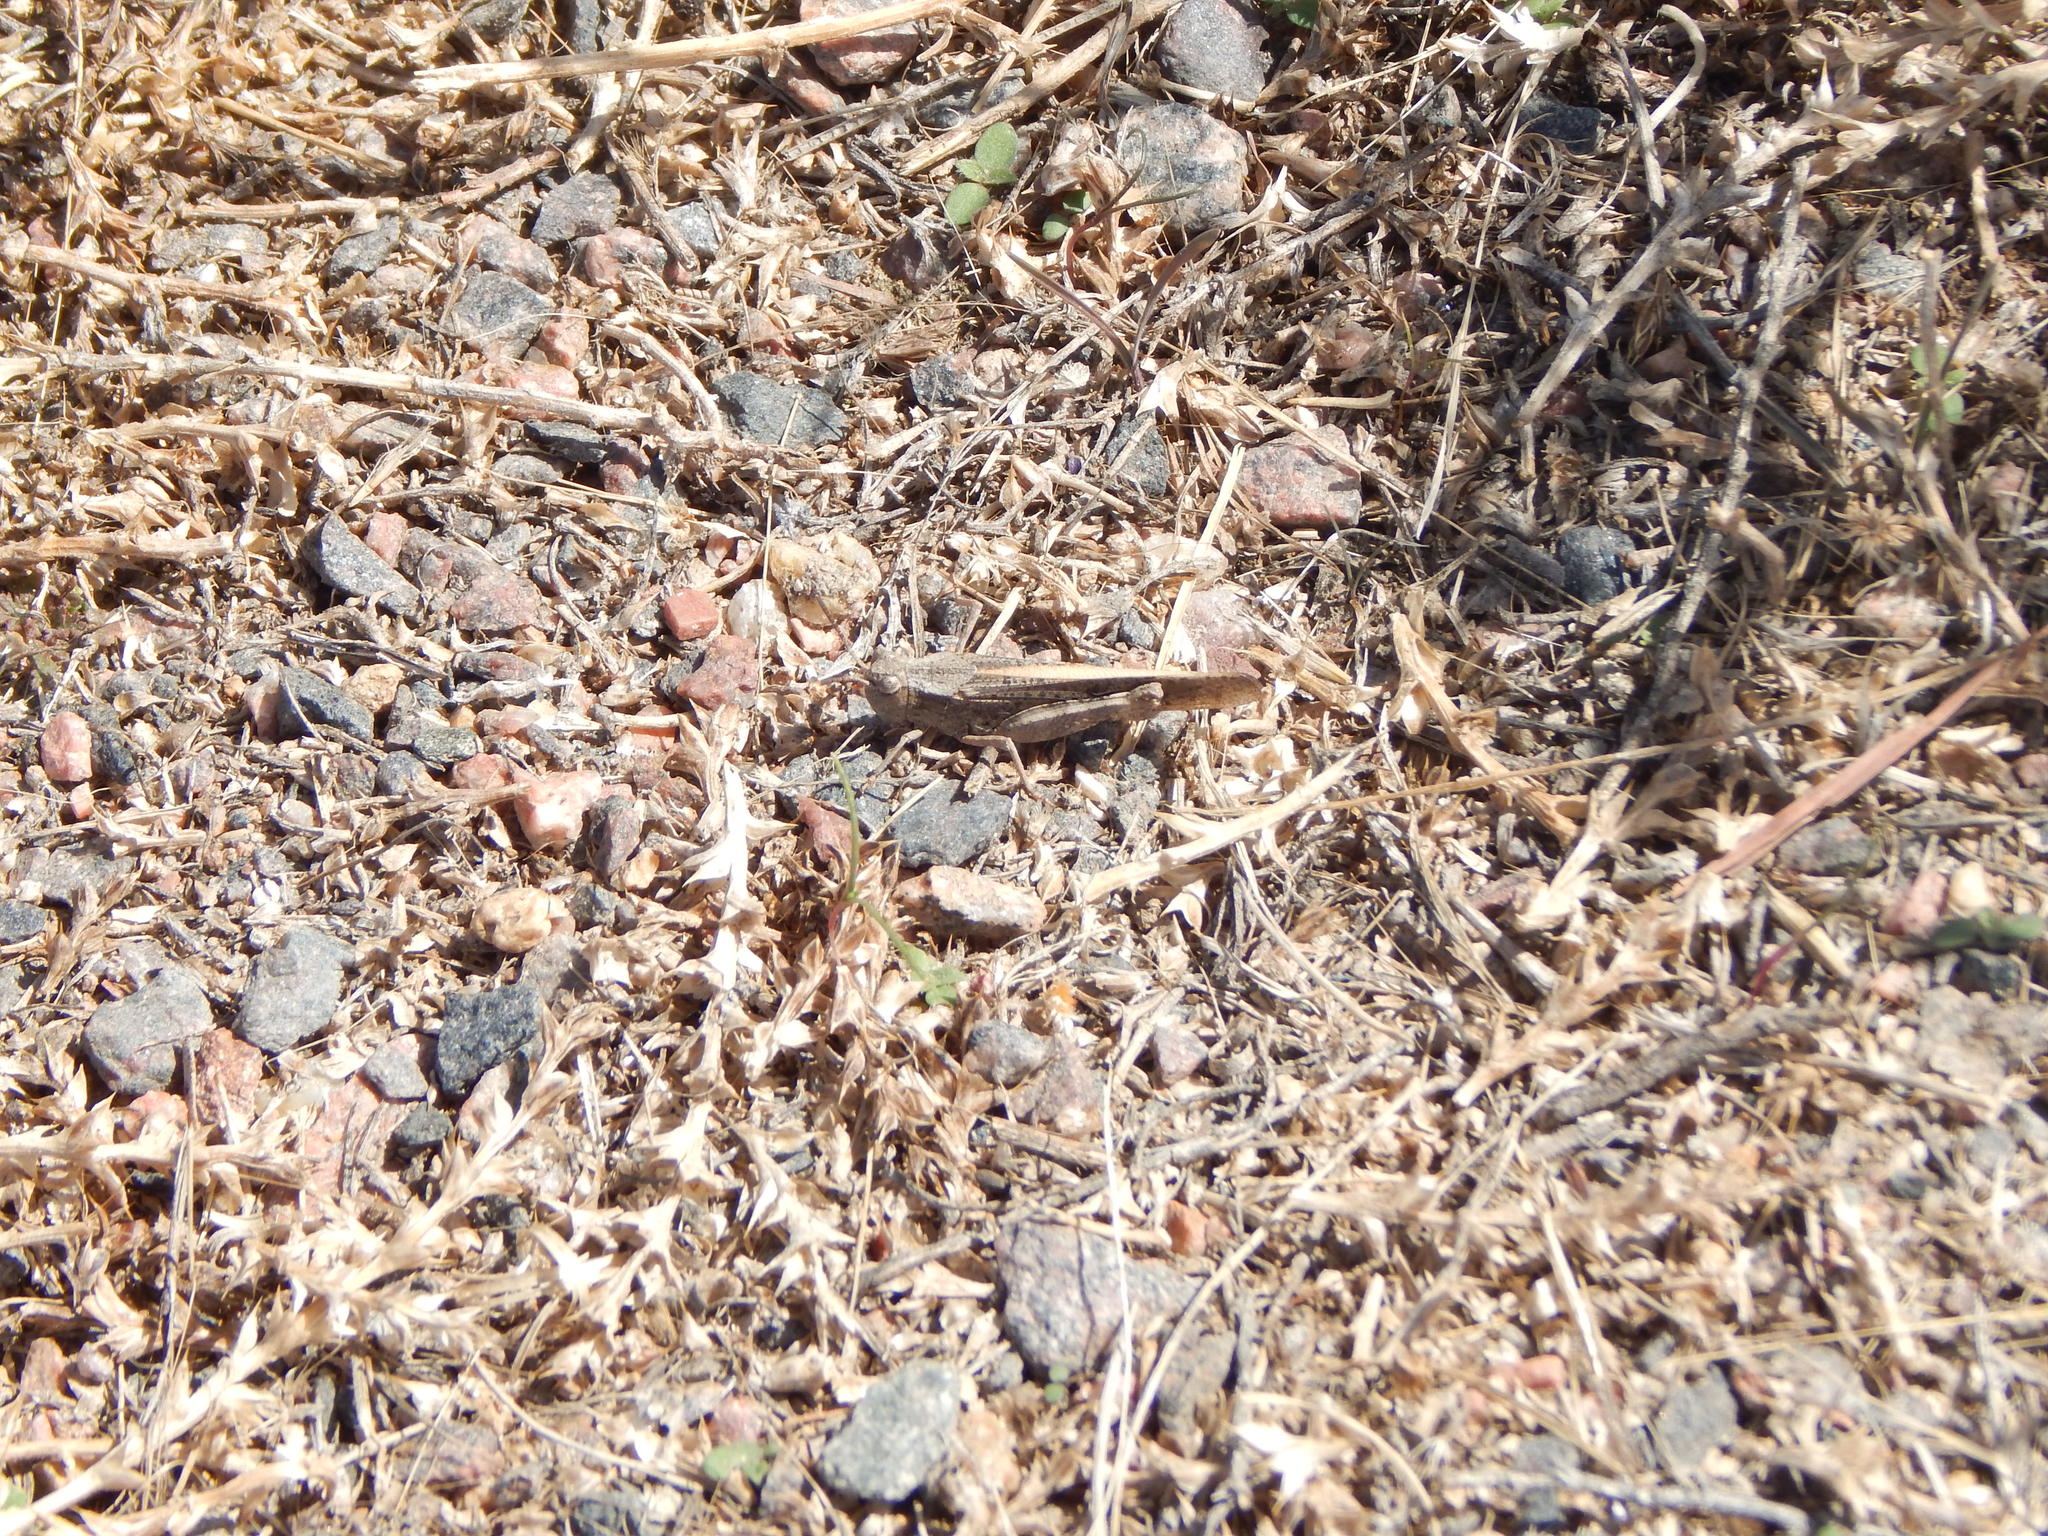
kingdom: Animalia
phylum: Arthropoda
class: Insecta
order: Orthoptera
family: Acrididae
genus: Arphia
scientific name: Arphia conspersa
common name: Speckle-winged rangeland grasshopper
